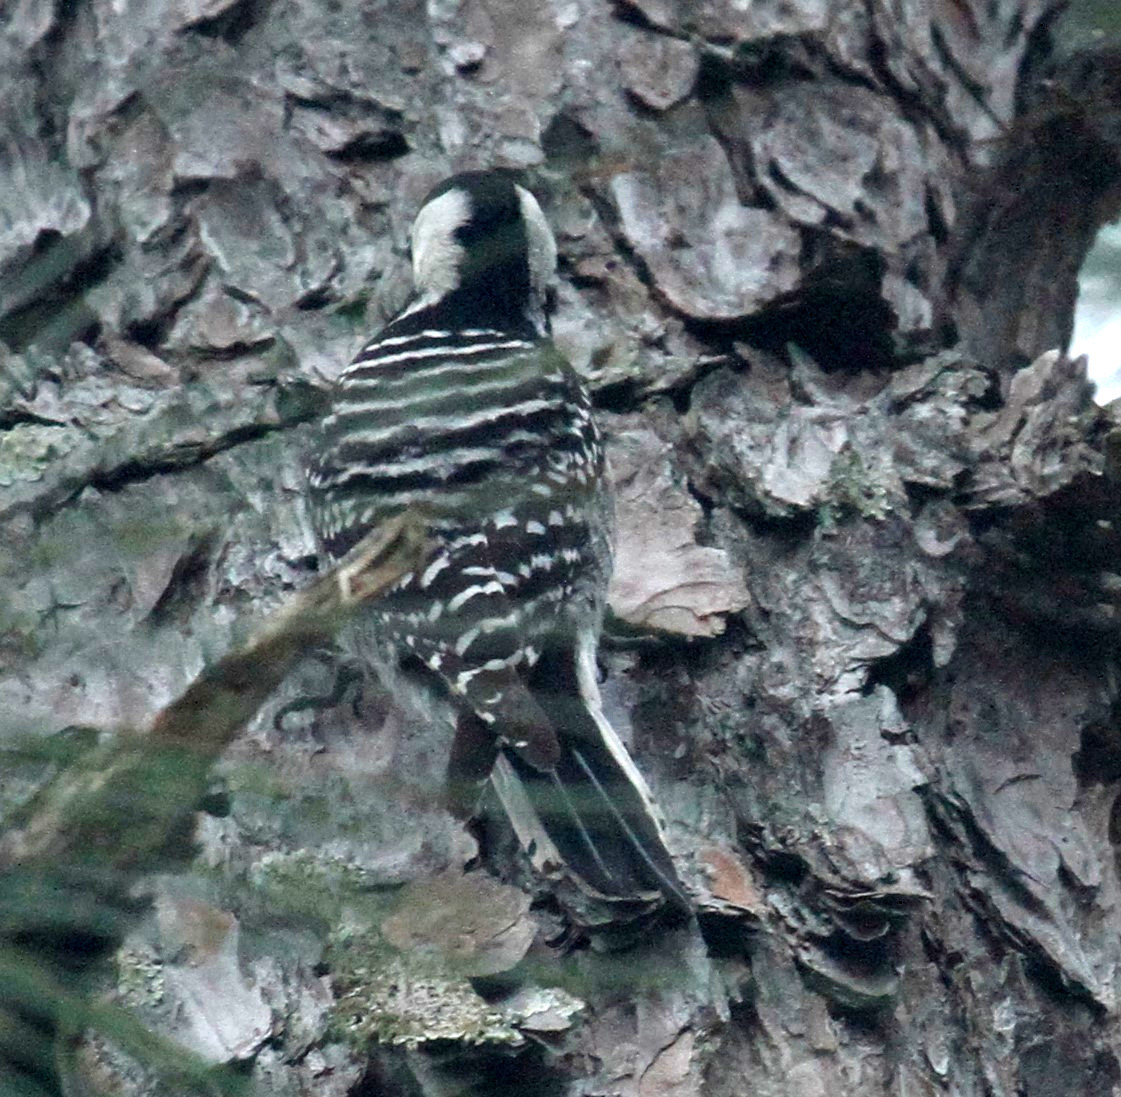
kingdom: Animalia
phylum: Chordata
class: Aves
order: Piciformes
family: Picidae
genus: Leuconotopicus
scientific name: Leuconotopicus borealis
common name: Red-cockaded woodpecker
